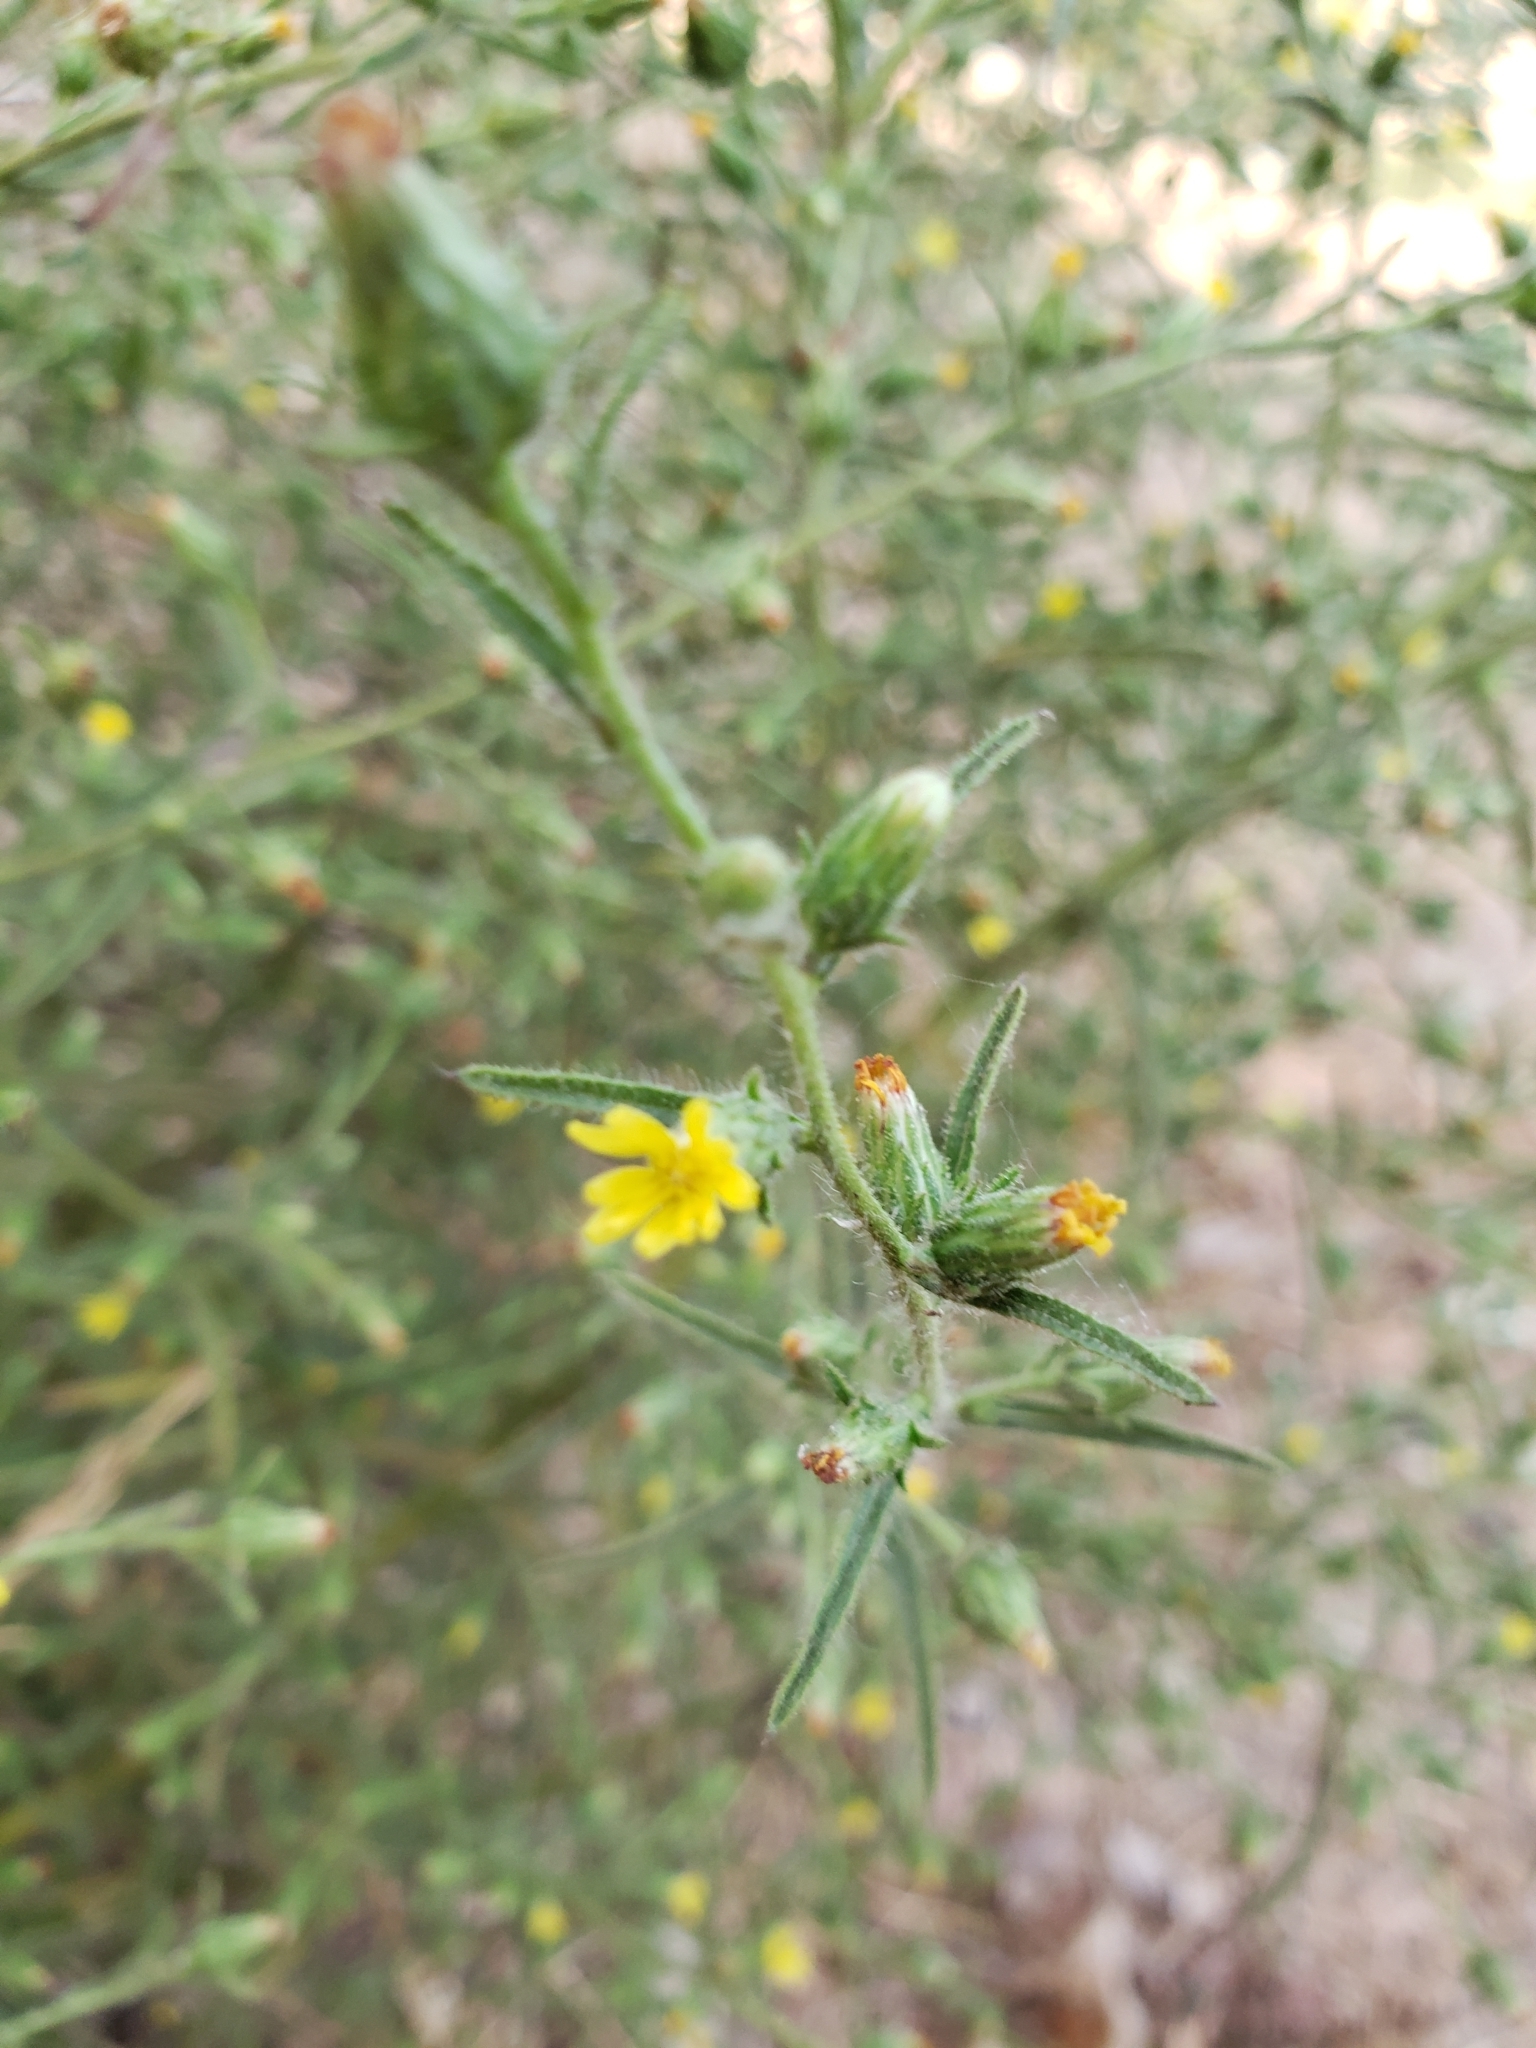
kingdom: Plantae
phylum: Tracheophyta
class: Magnoliopsida
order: Asterales
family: Asteraceae
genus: Dittrichia
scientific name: Dittrichia graveolens
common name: Stinking fleabane
